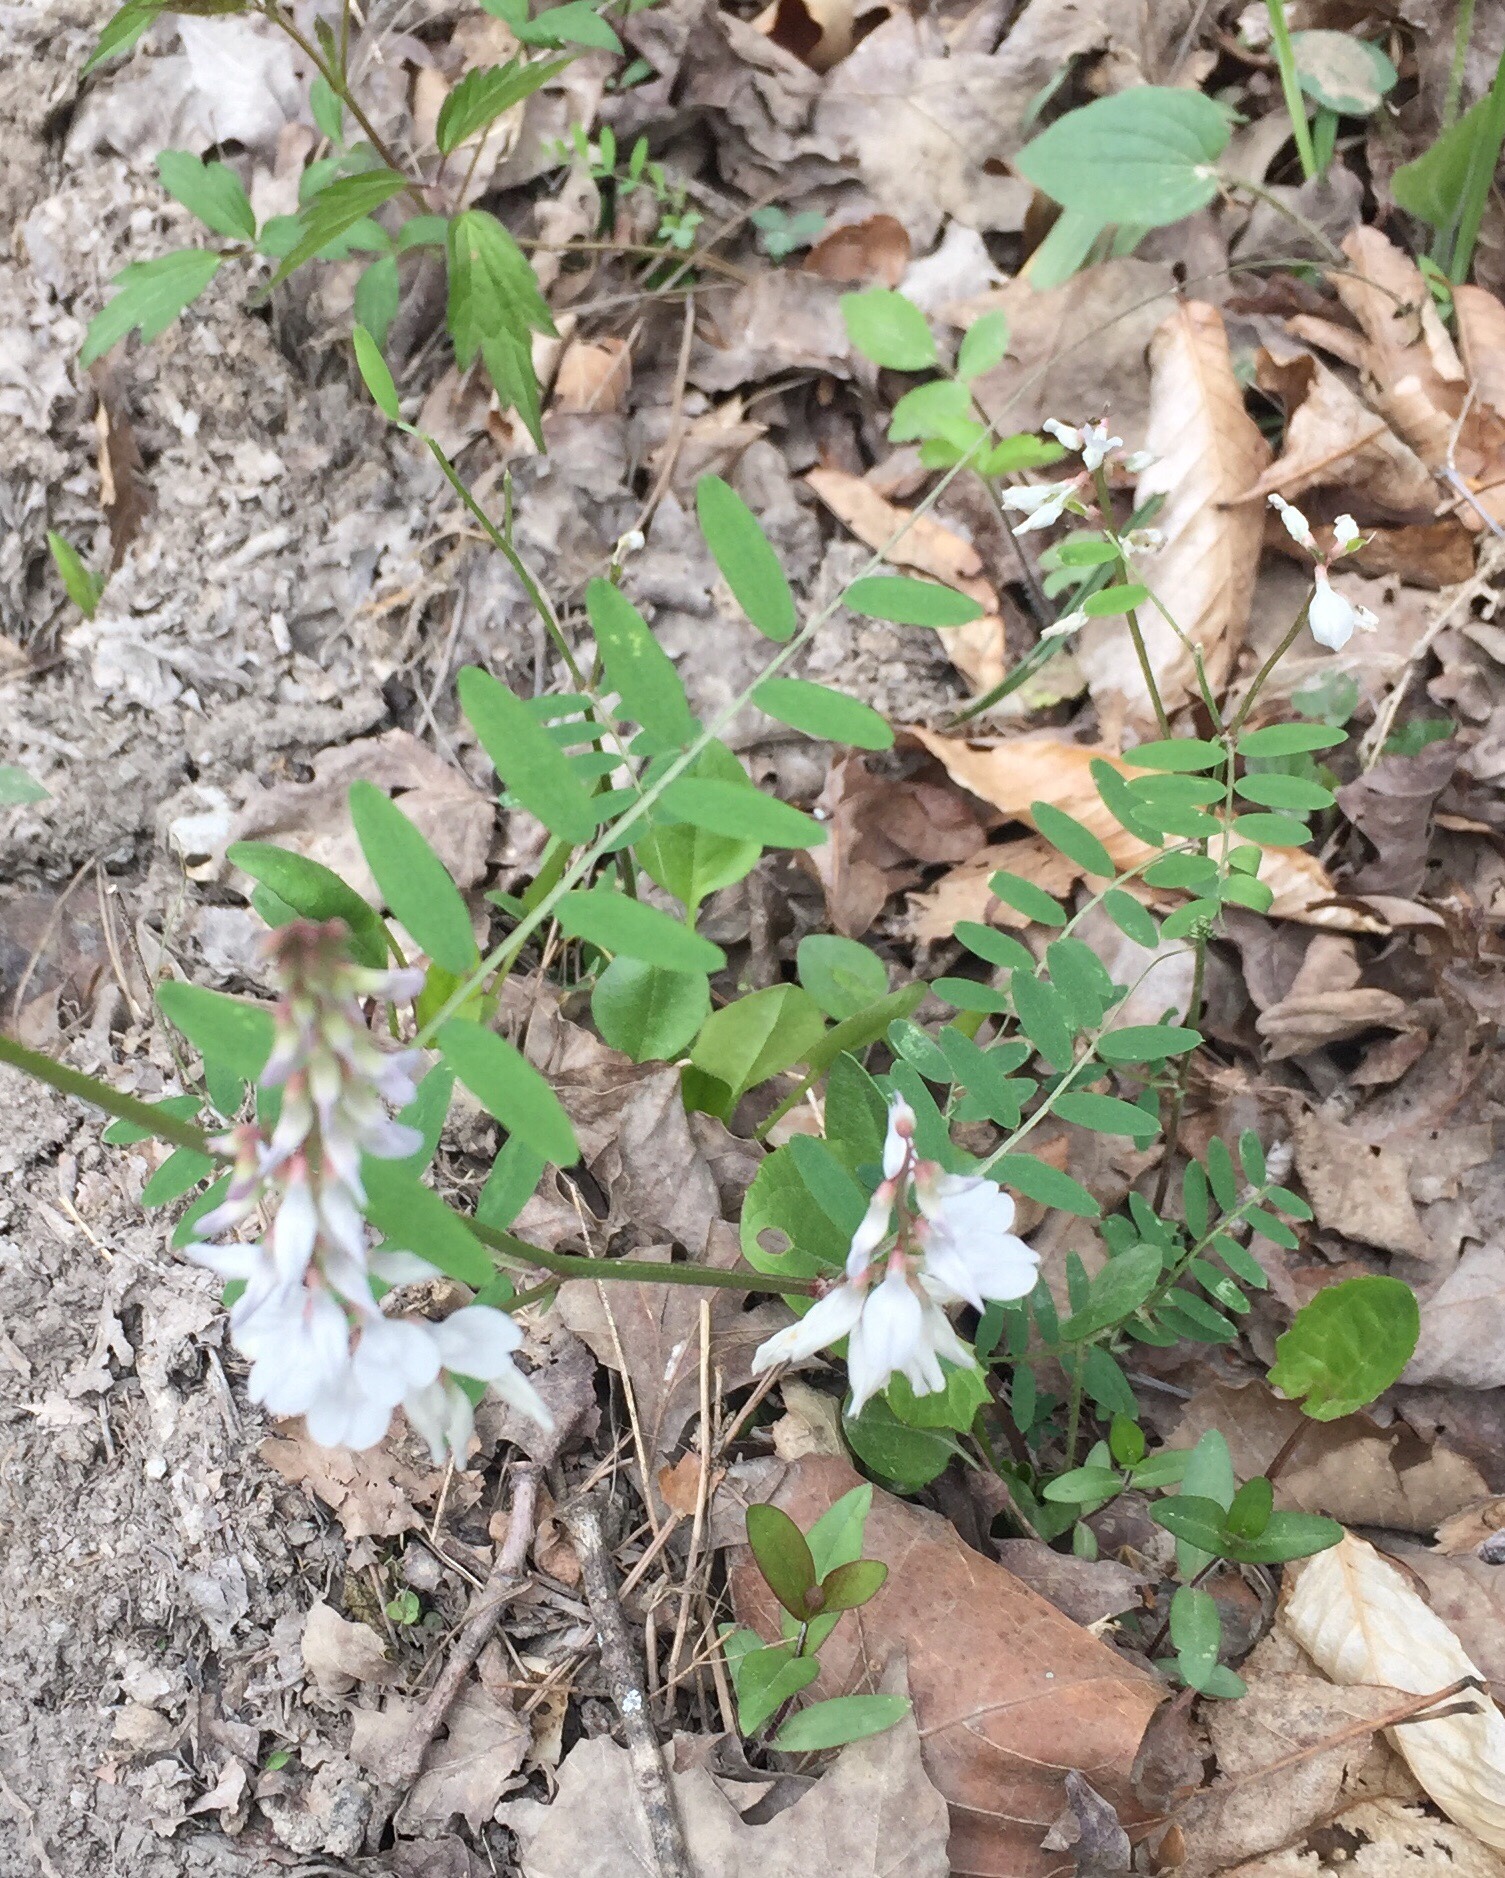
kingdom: Plantae
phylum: Tracheophyta
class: Magnoliopsida
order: Fabales
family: Fabaceae
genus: Vicia
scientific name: Vicia caroliniana
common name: Carolina vetch
